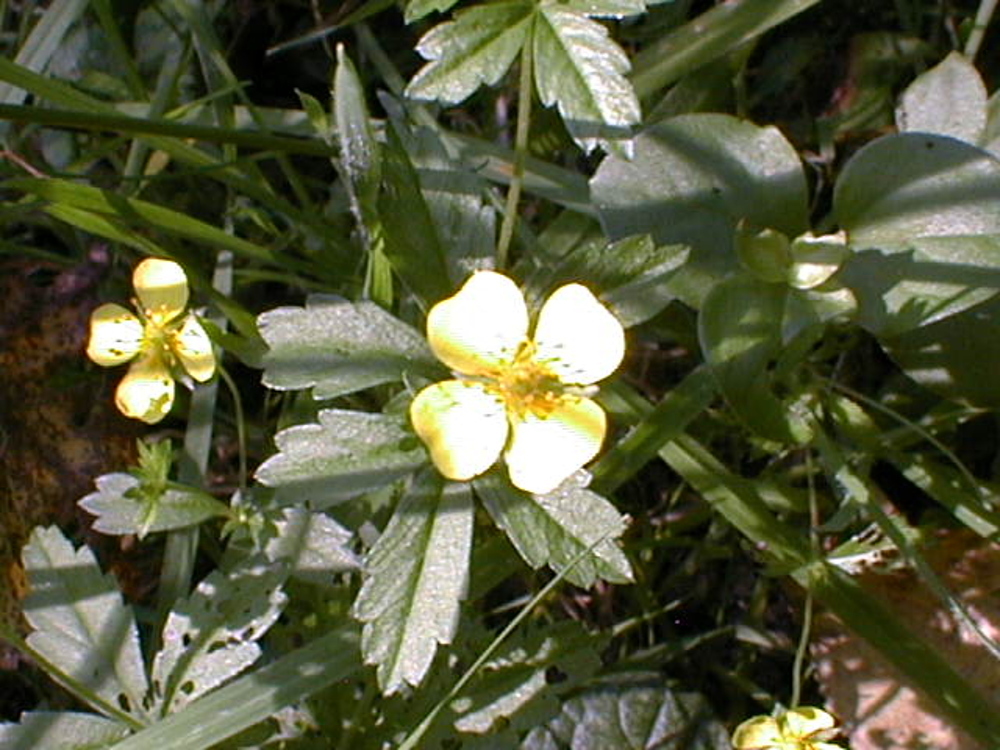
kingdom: Plantae
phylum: Tracheophyta
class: Magnoliopsida
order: Rosales
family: Rosaceae
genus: Potentilla
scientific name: Potentilla erecta
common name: Tormentil
